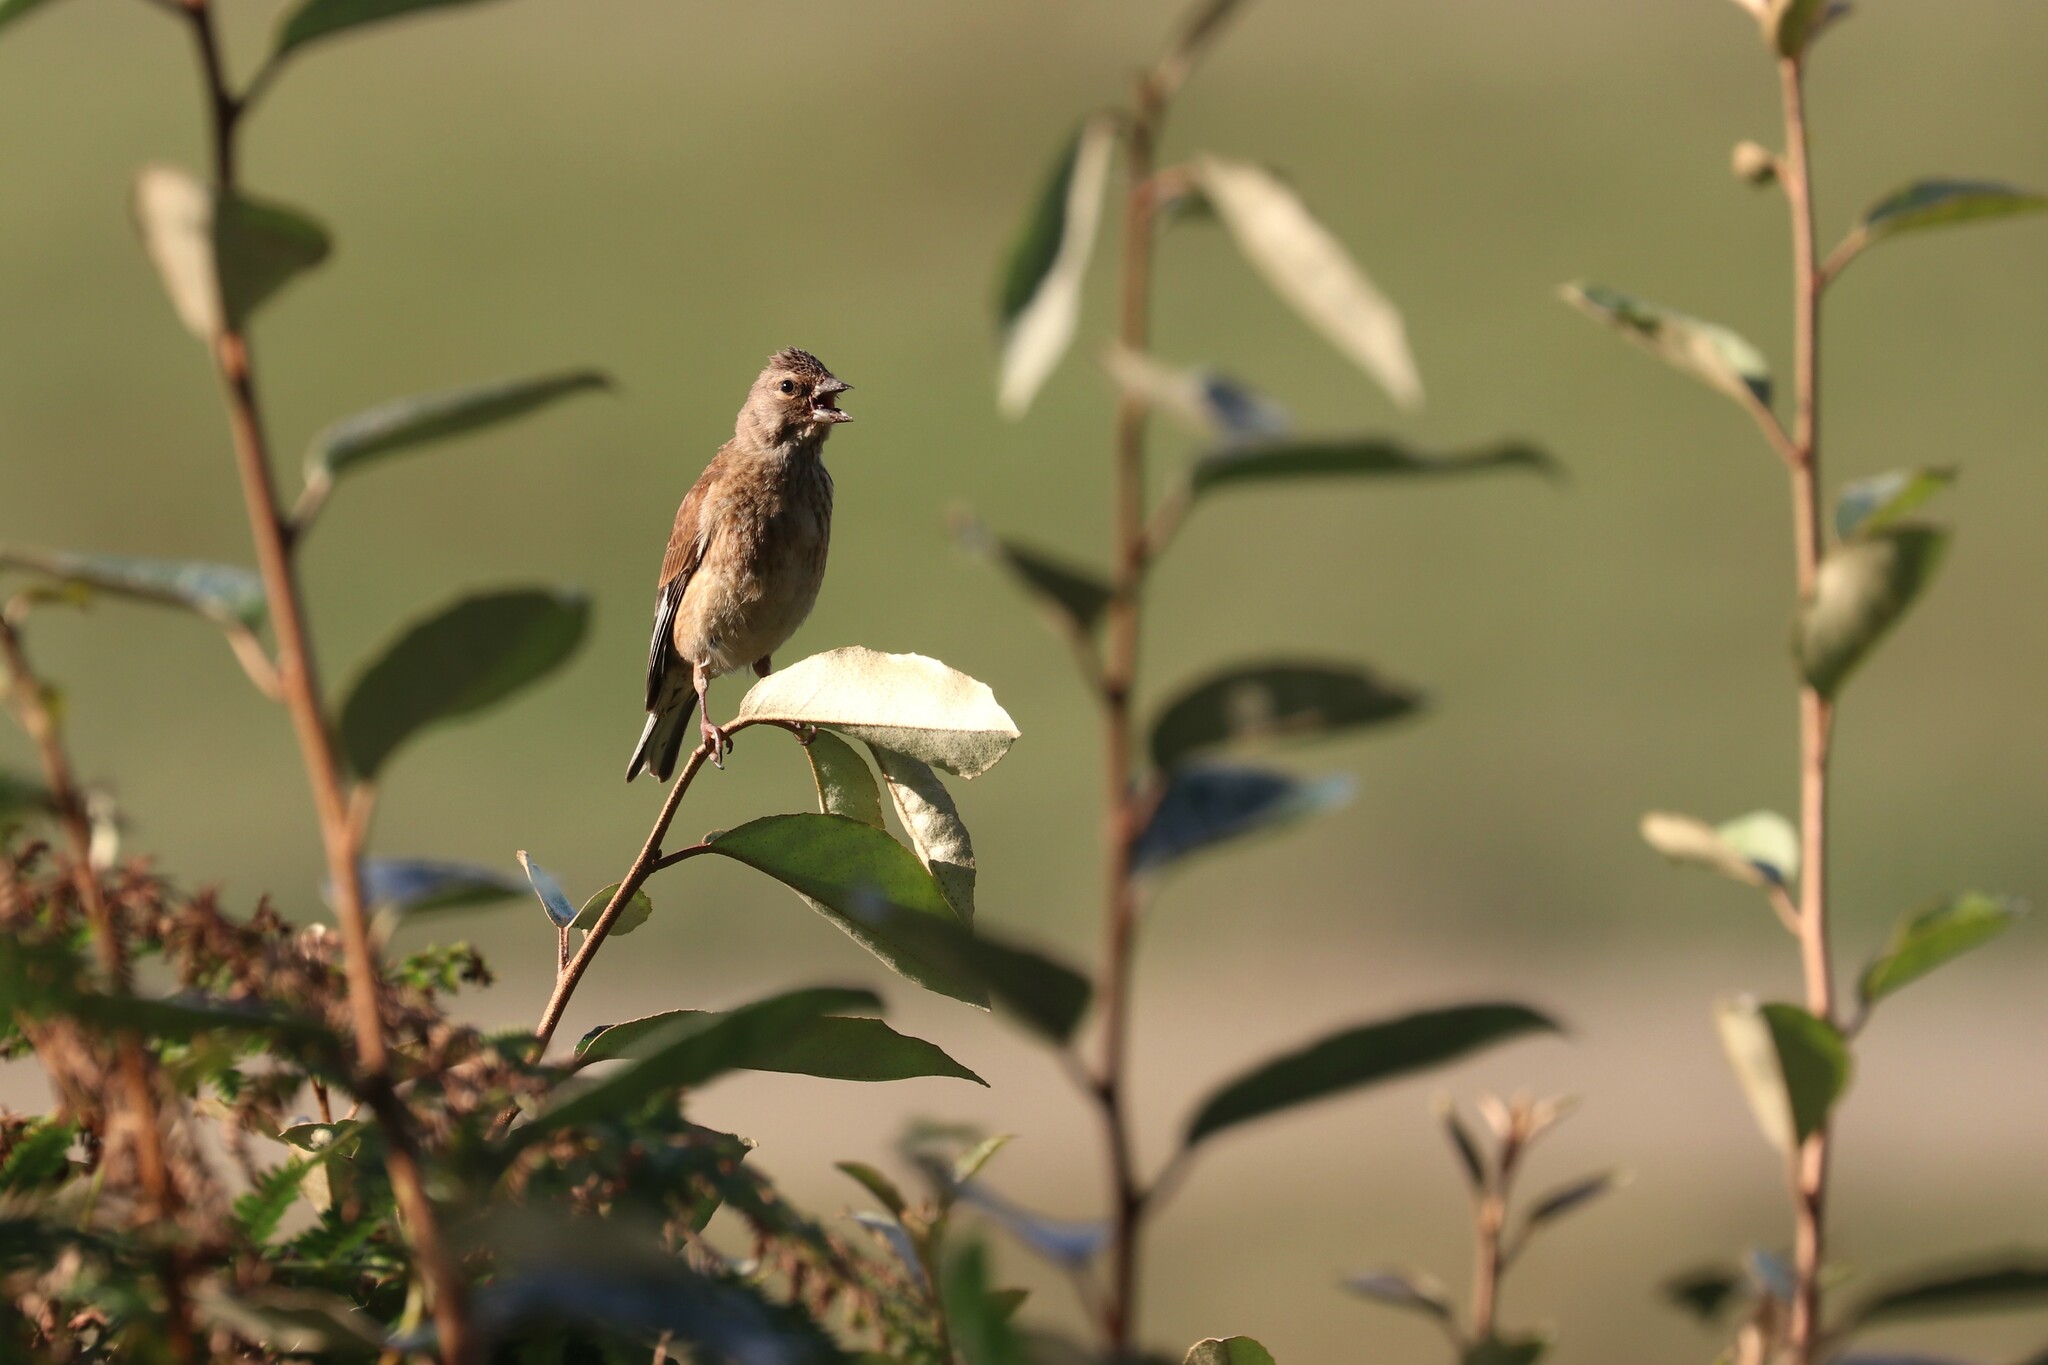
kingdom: Animalia
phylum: Chordata
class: Aves
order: Passeriformes
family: Fringillidae
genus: Linaria
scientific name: Linaria cannabina
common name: Common linnet
